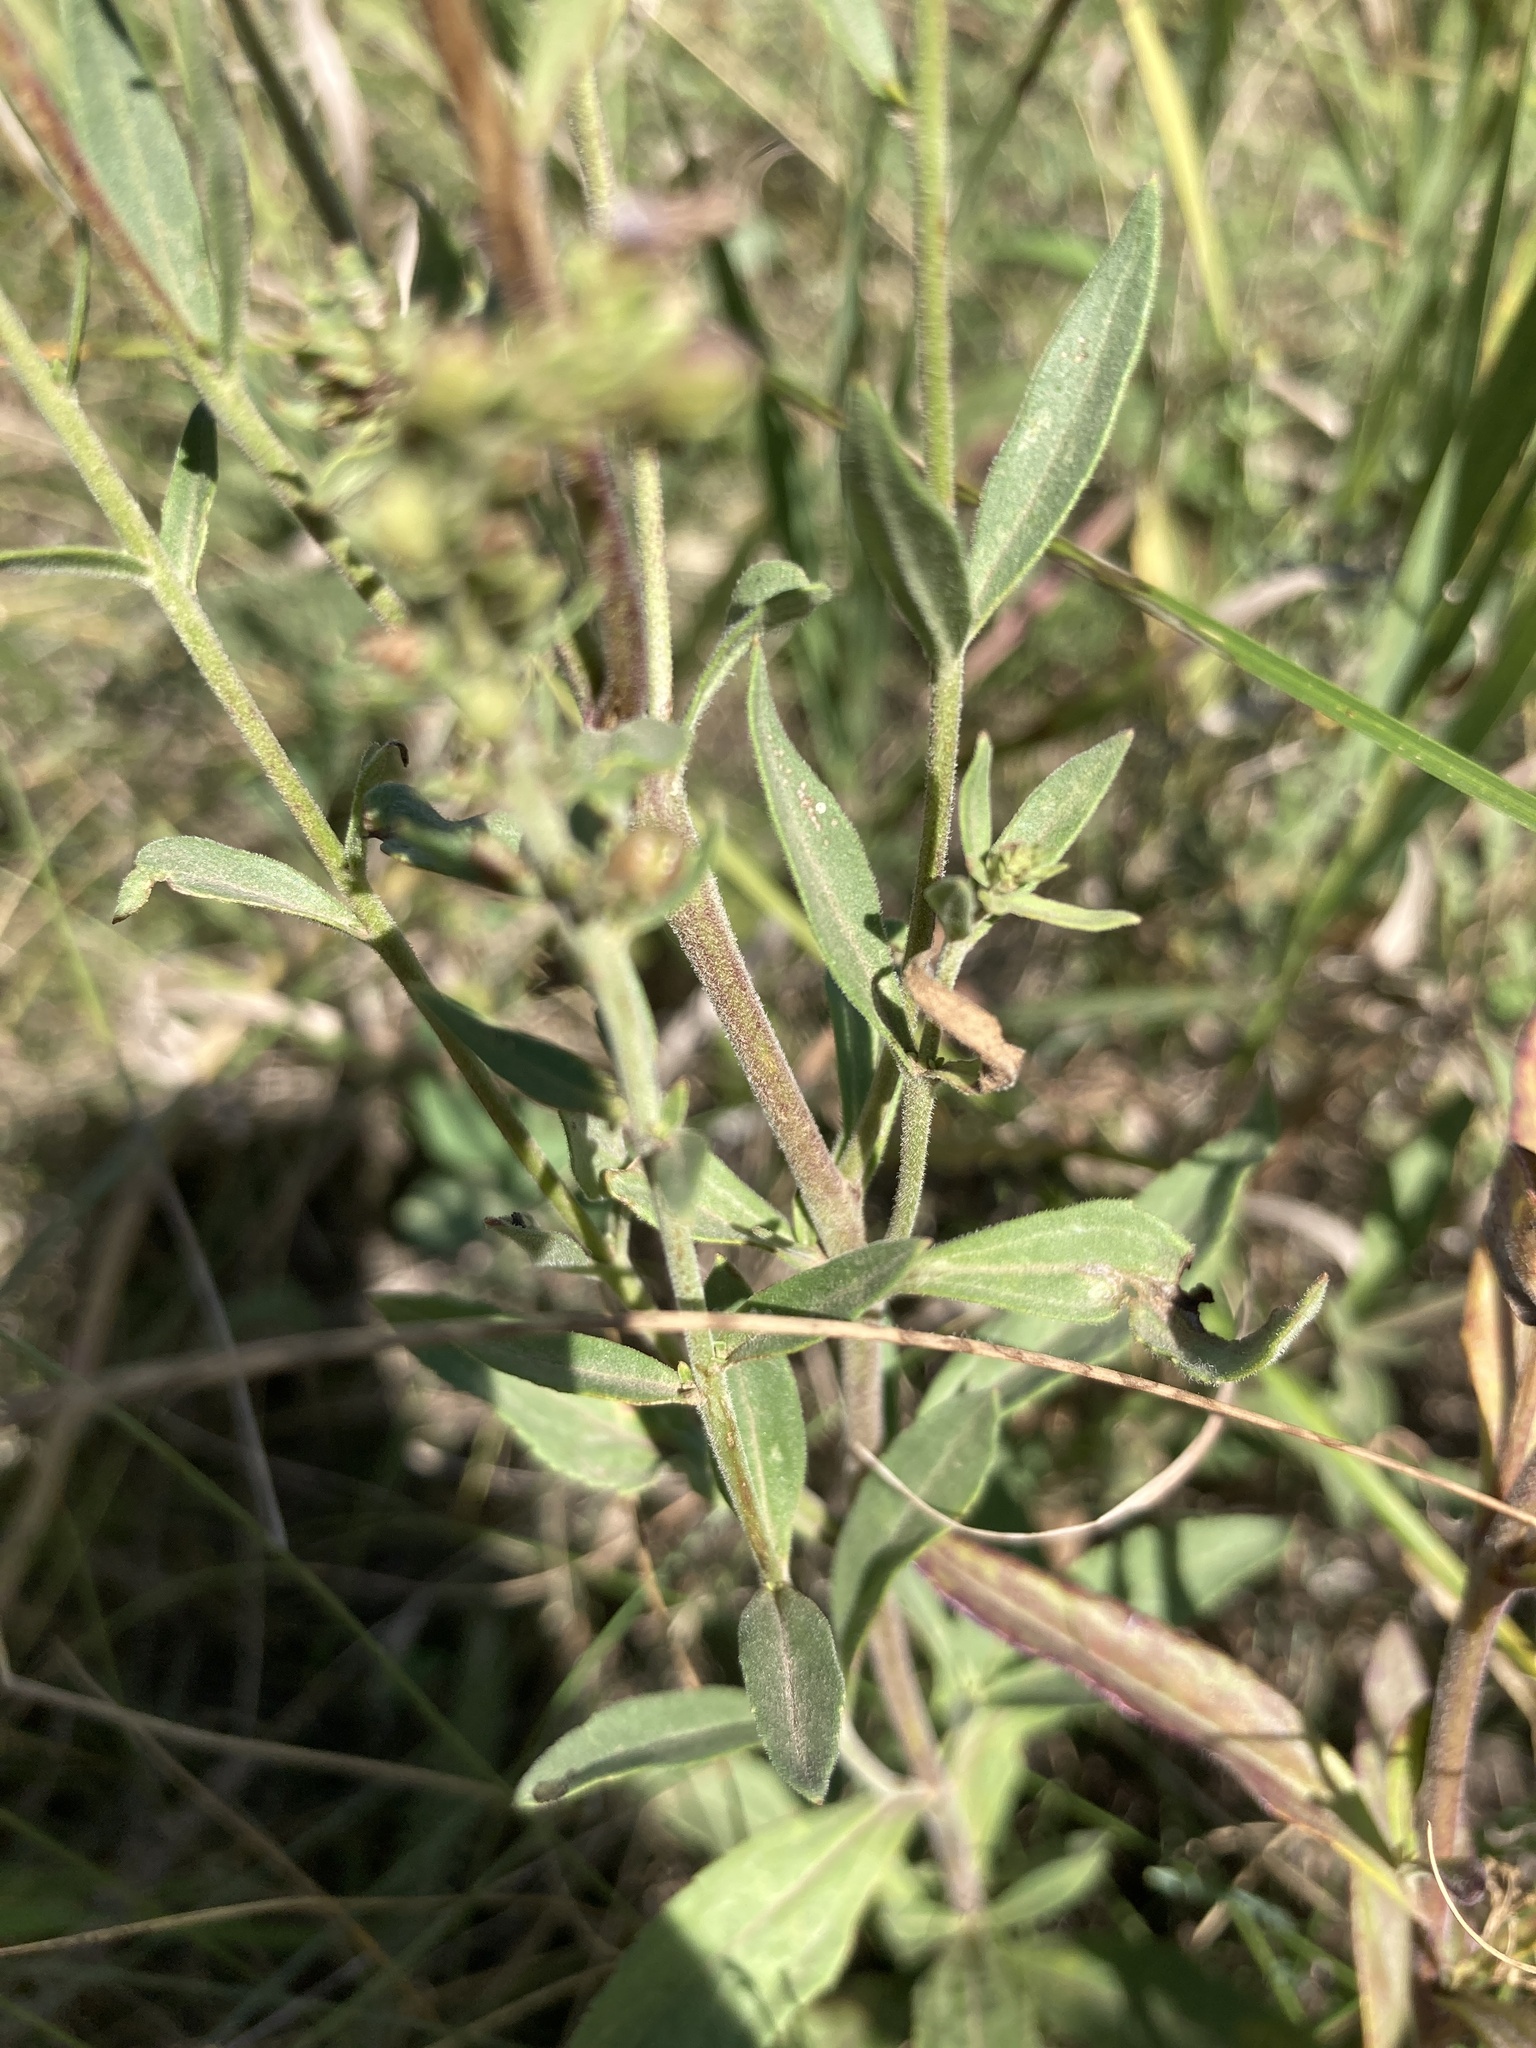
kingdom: Plantae
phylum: Tracheophyta
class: Magnoliopsida
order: Lamiales
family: Plantaginaceae
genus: Veronica
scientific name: Veronica spicata
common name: Spiked speedwell
